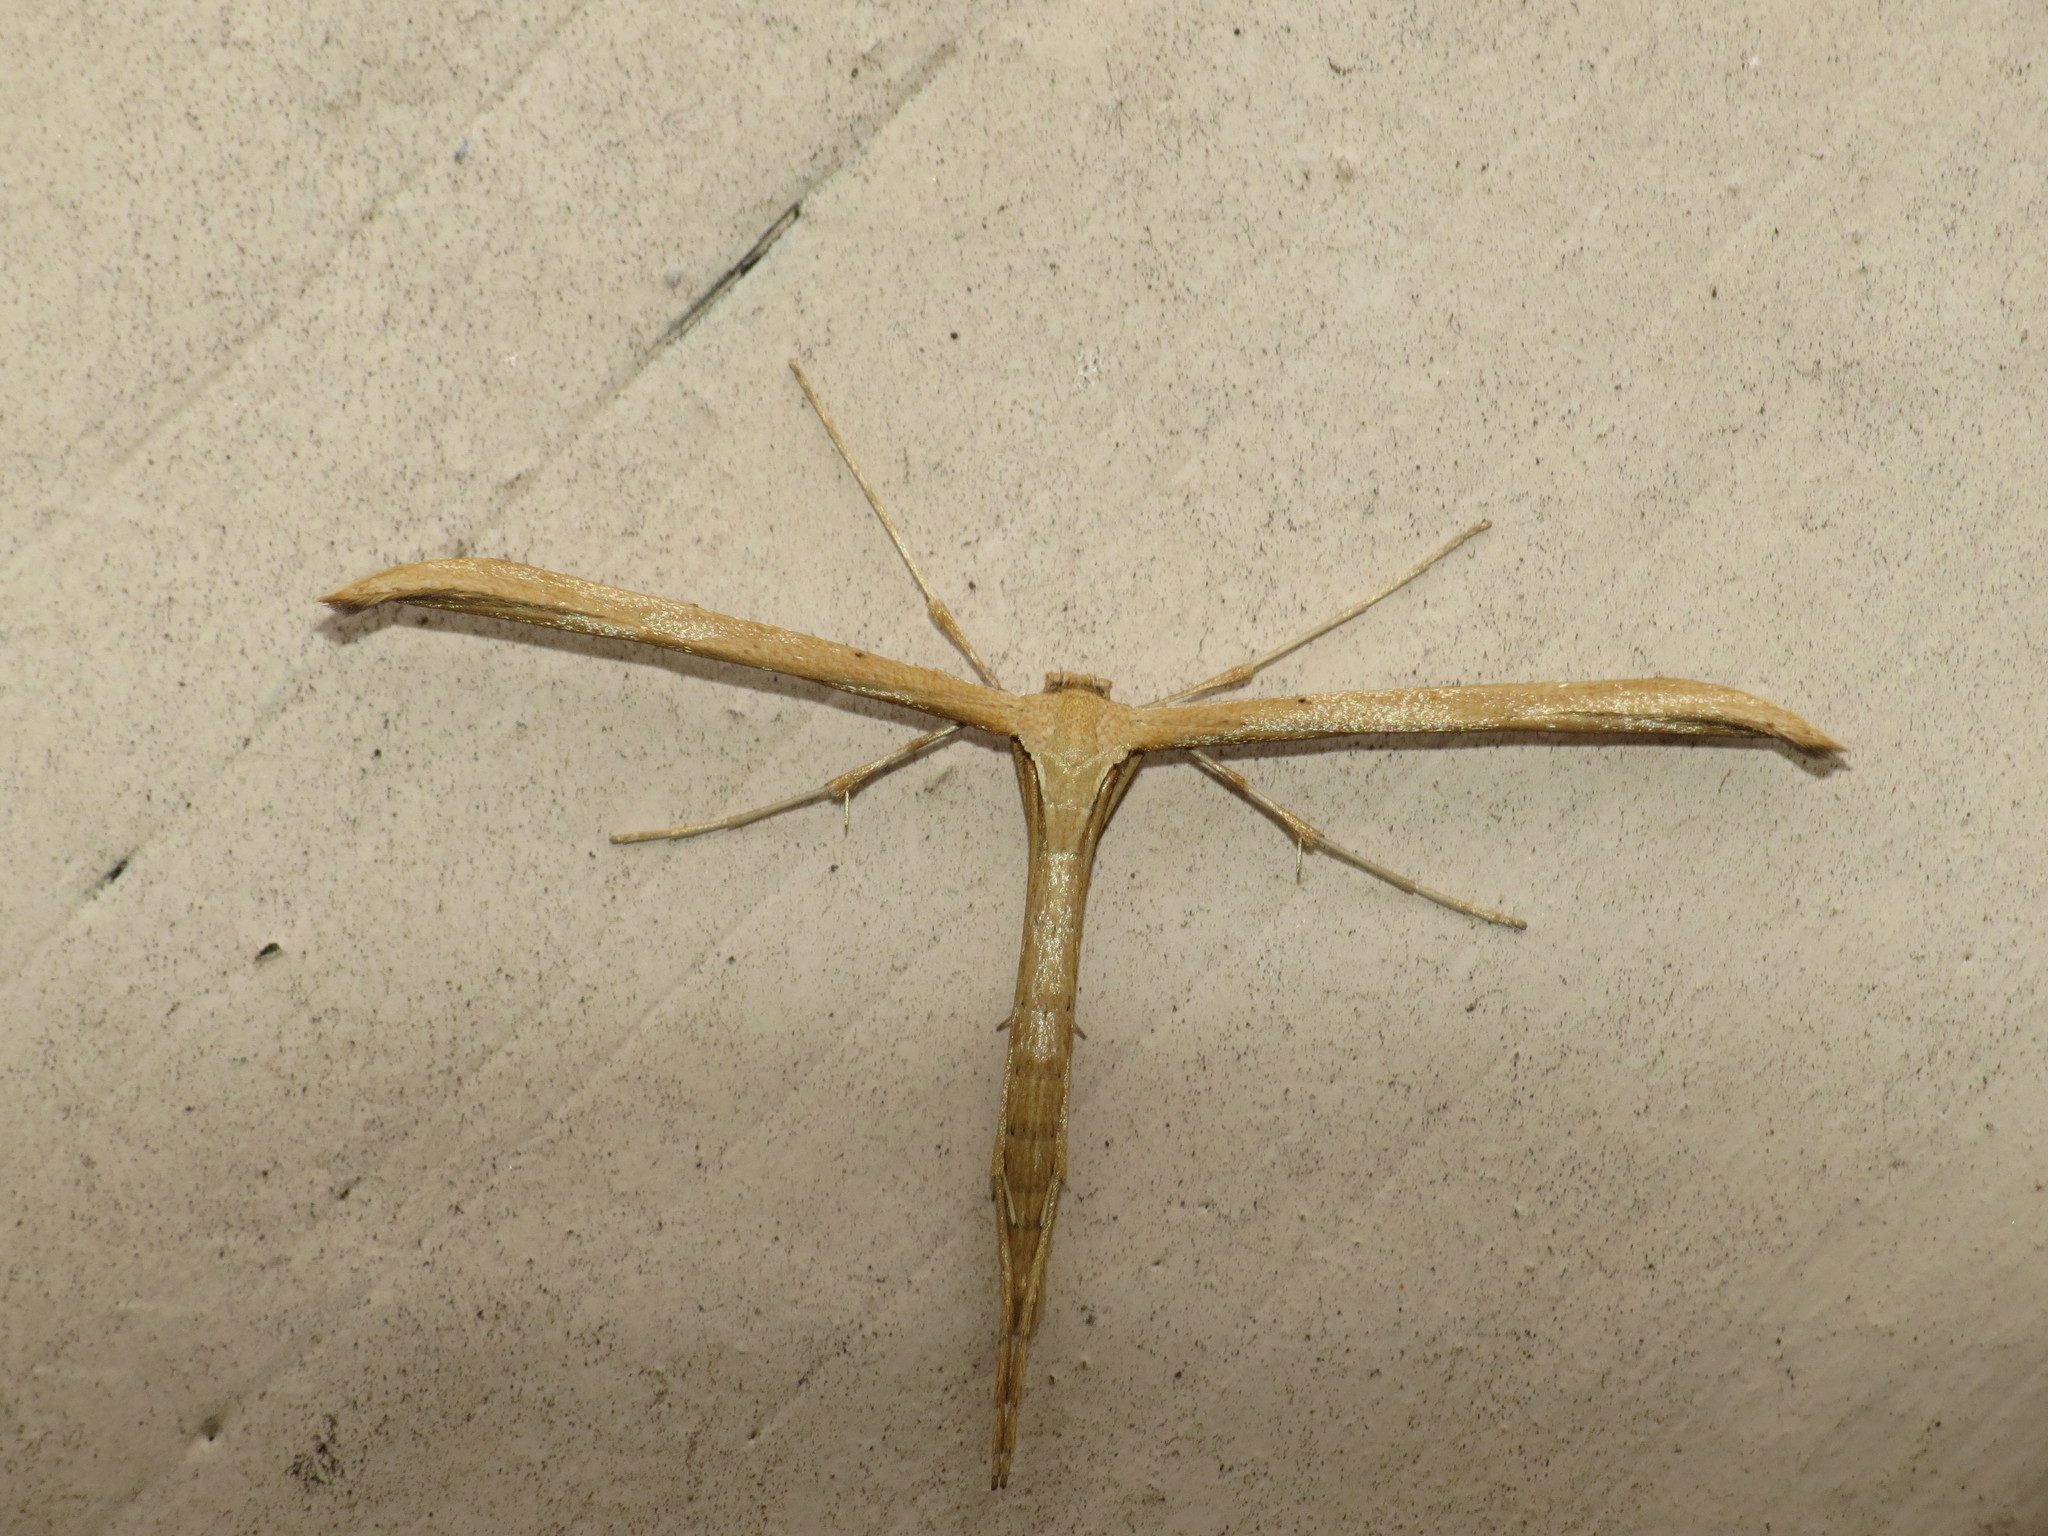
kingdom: Animalia
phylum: Arthropoda
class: Insecta
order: Lepidoptera
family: Pterophoridae
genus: Emmelina
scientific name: Emmelina monodactyla
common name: Common plume
